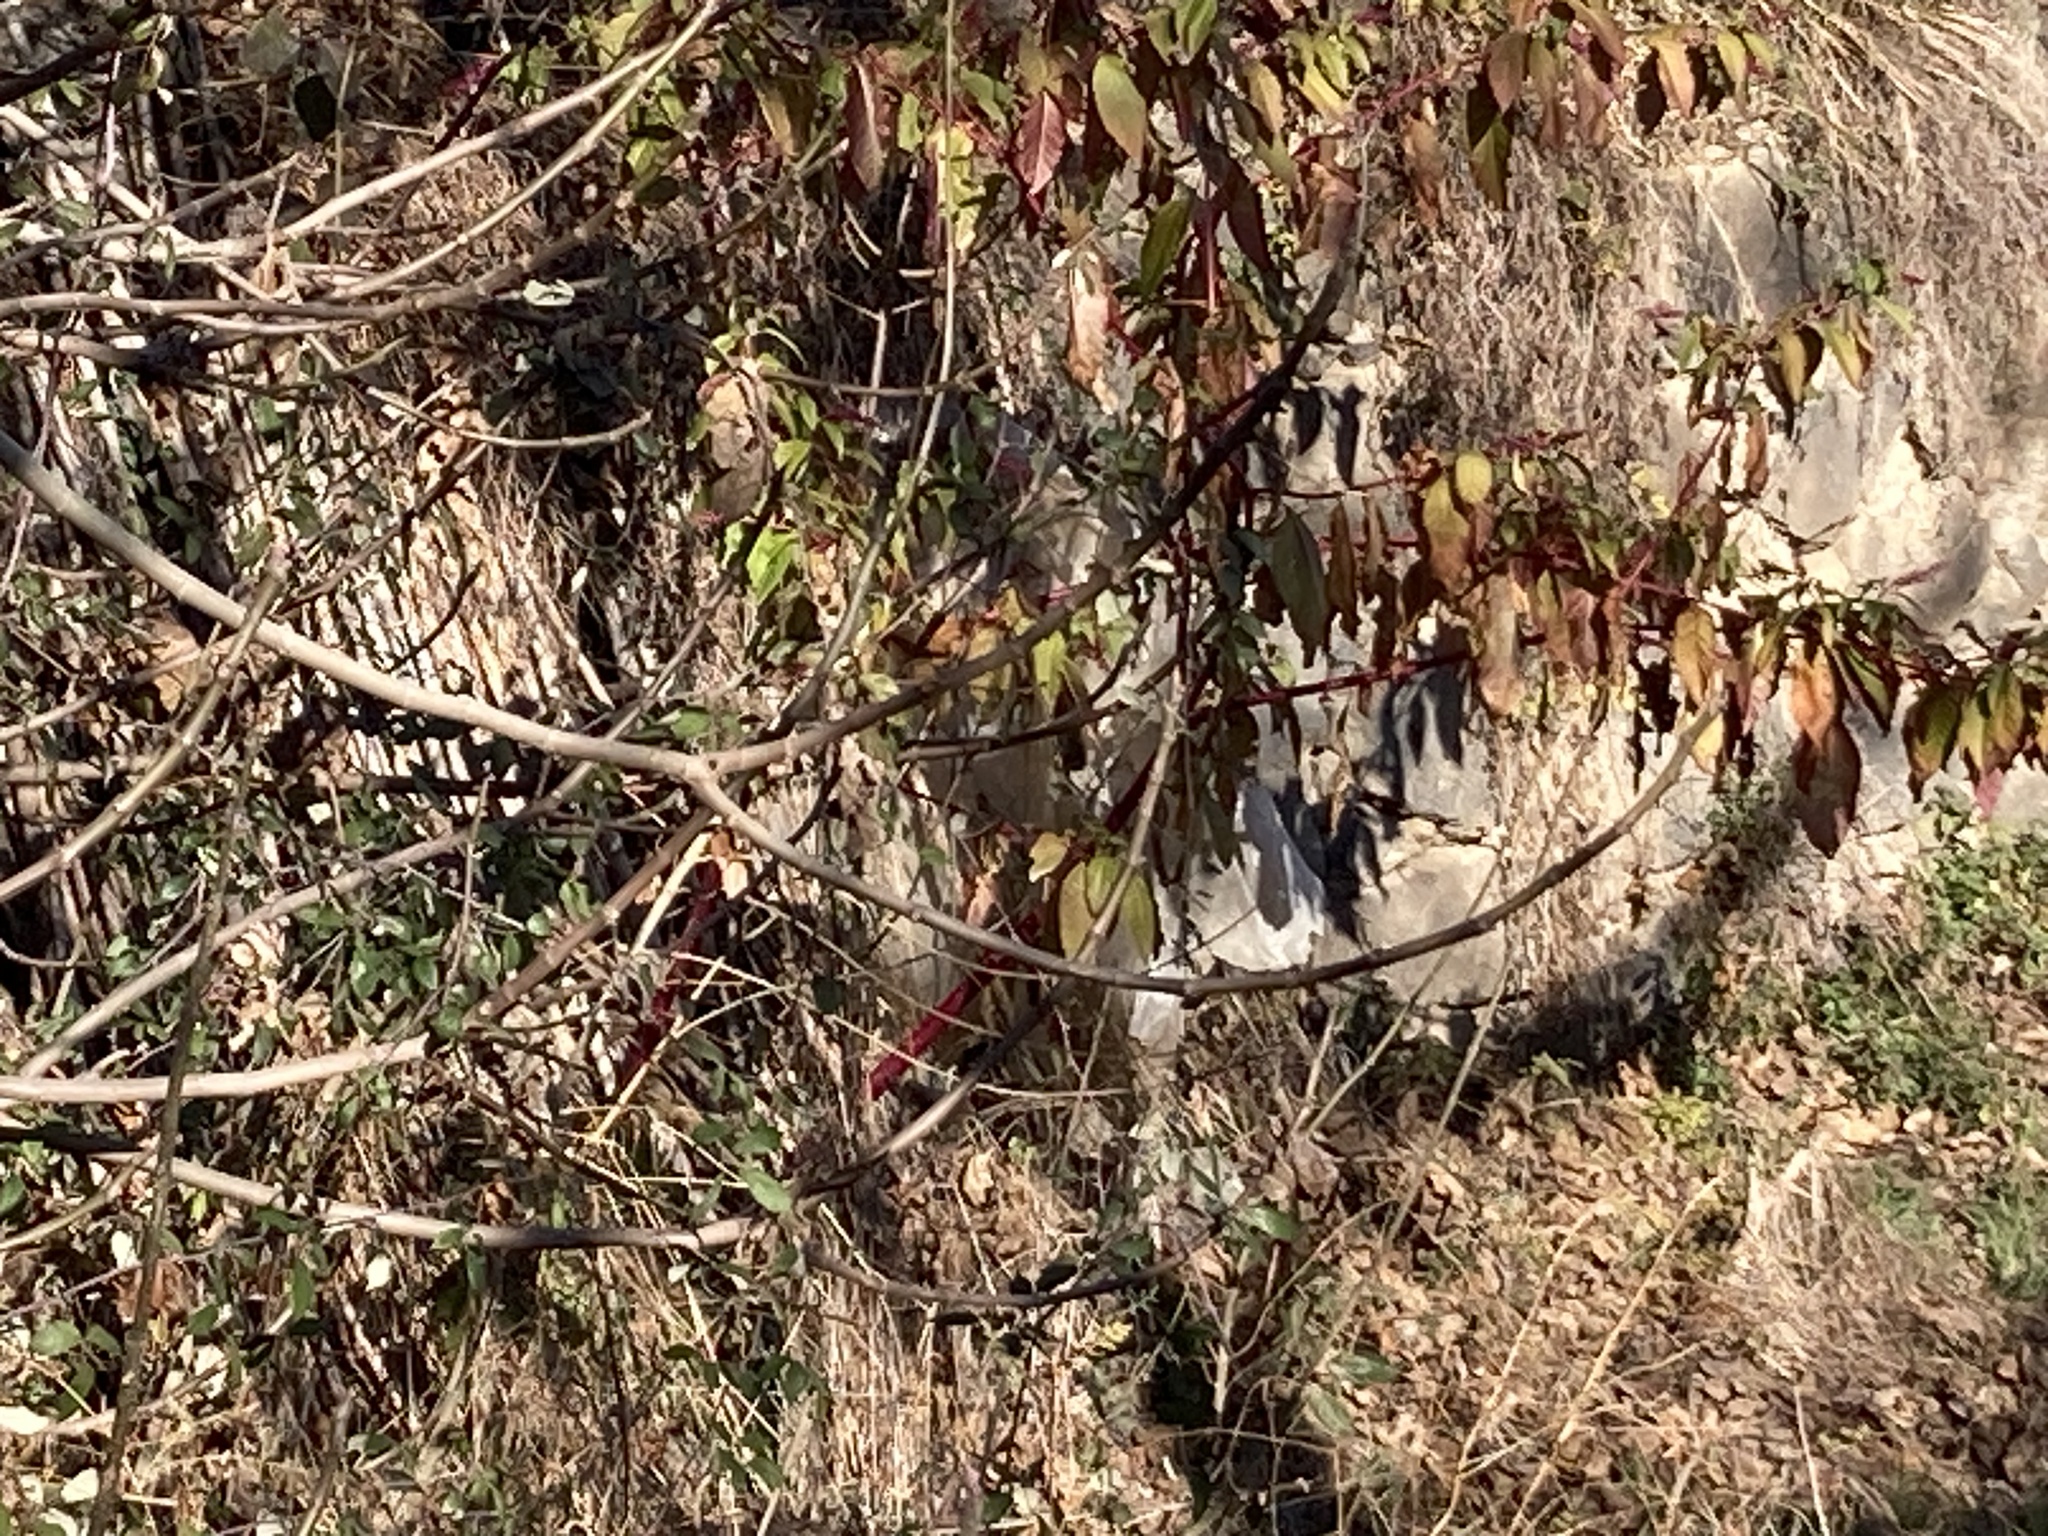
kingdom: Plantae
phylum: Tracheophyta
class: Magnoliopsida
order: Caryophyllales
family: Phytolaccaceae
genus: Phytolacca
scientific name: Phytolacca americana
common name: American pokeweed
